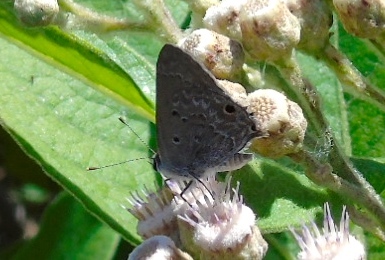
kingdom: Animalia
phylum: Arthropoda
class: Insecta
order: Lepidoptera
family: Lycaenidae
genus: Callicista
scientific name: Callicista columella
